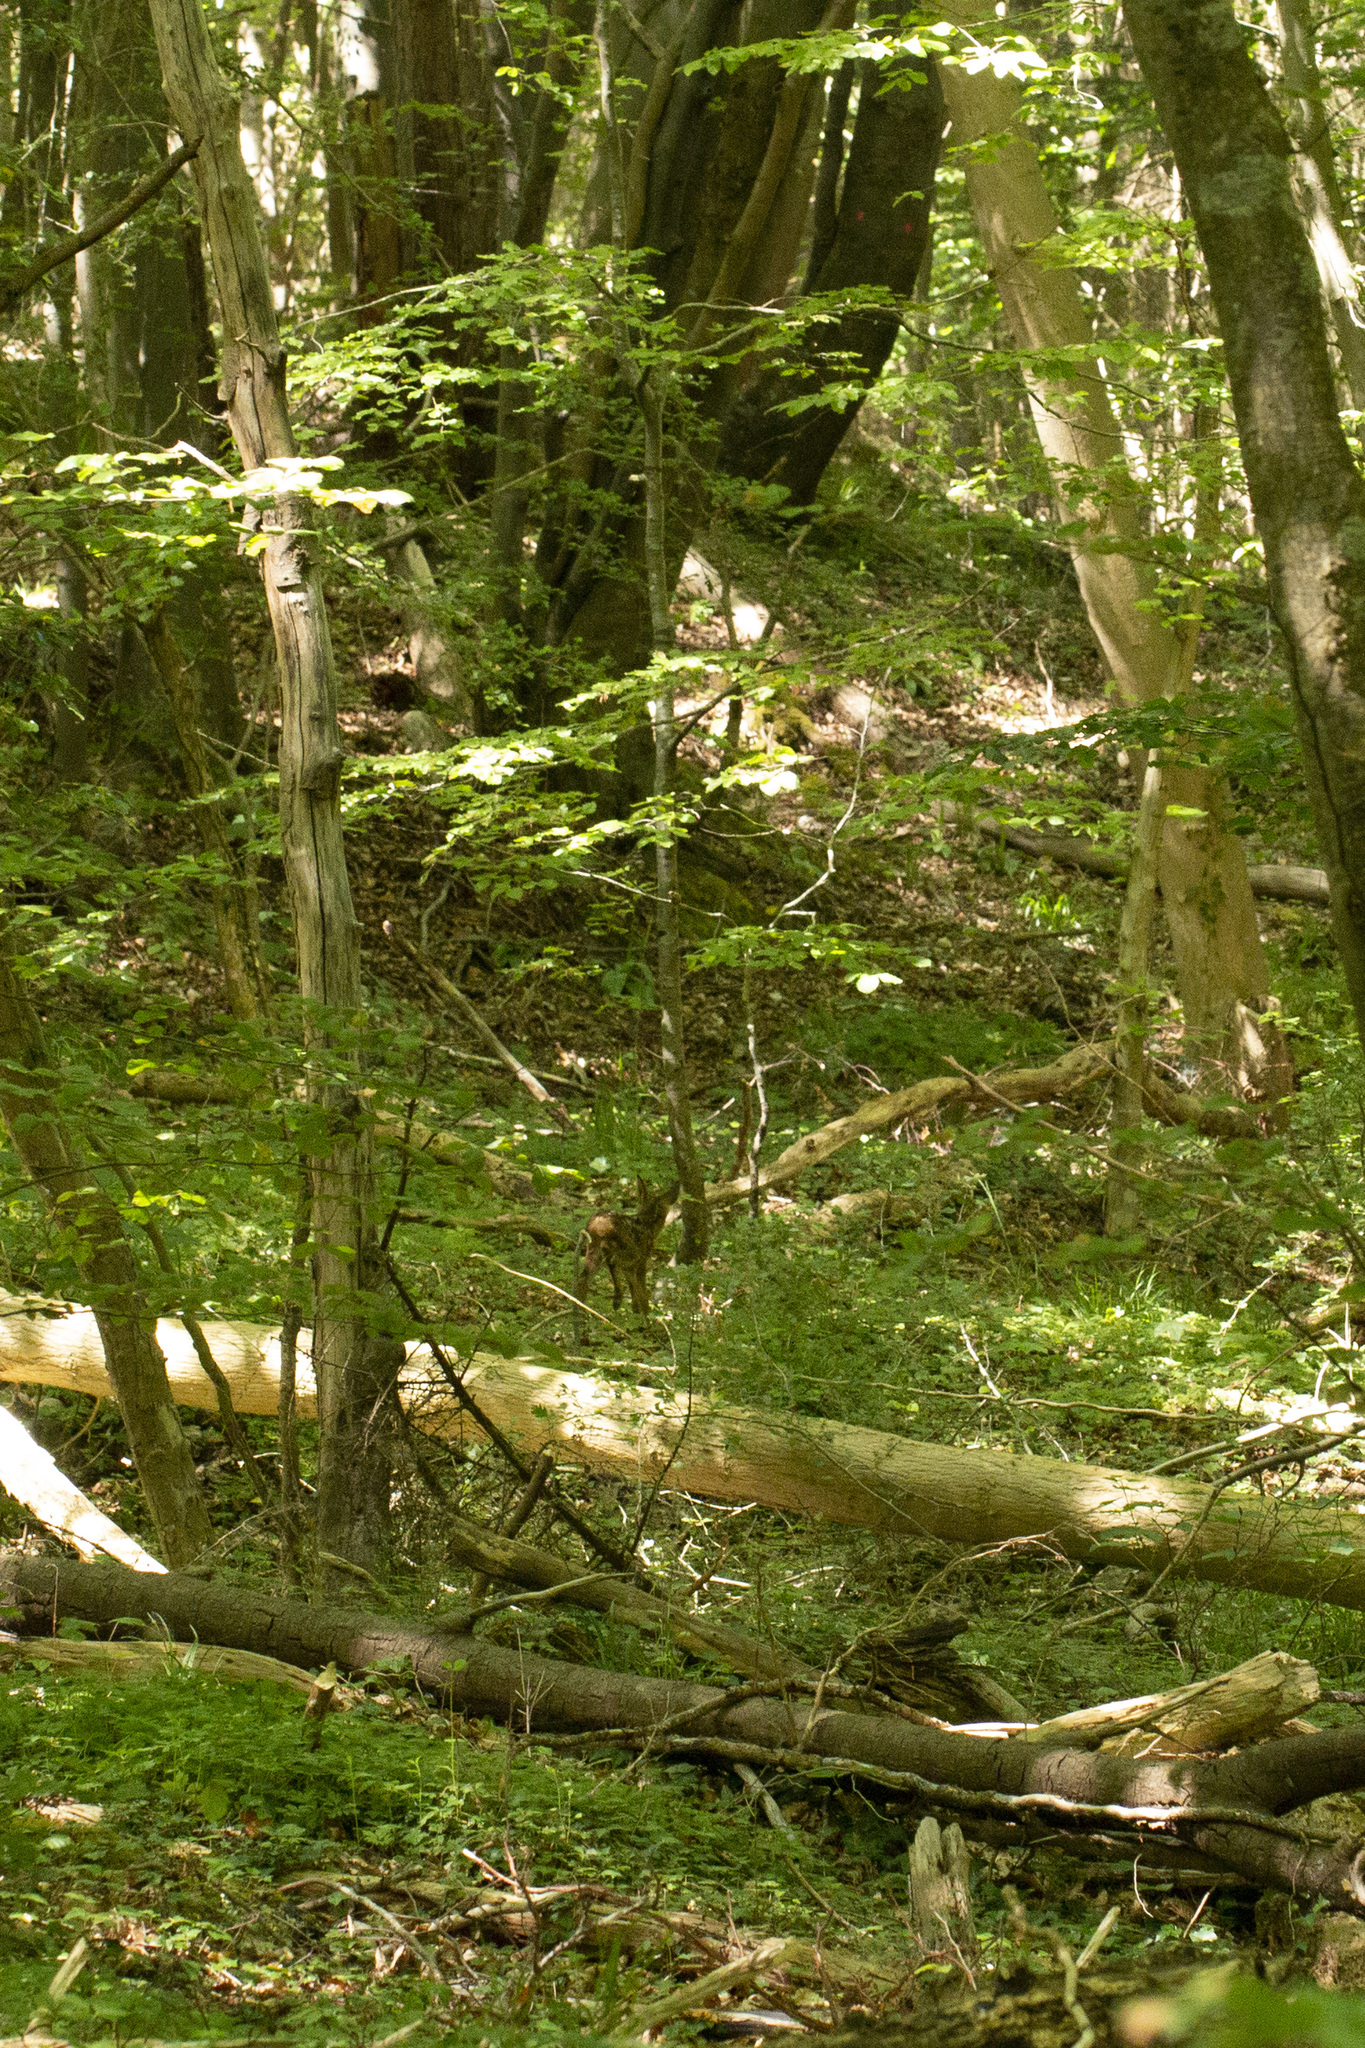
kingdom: Animalia
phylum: Chordata
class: Mammalia
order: Artiodactyla
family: Cervidae
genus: Capreolus
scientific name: Capreolus capreolus
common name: Western roe deer
